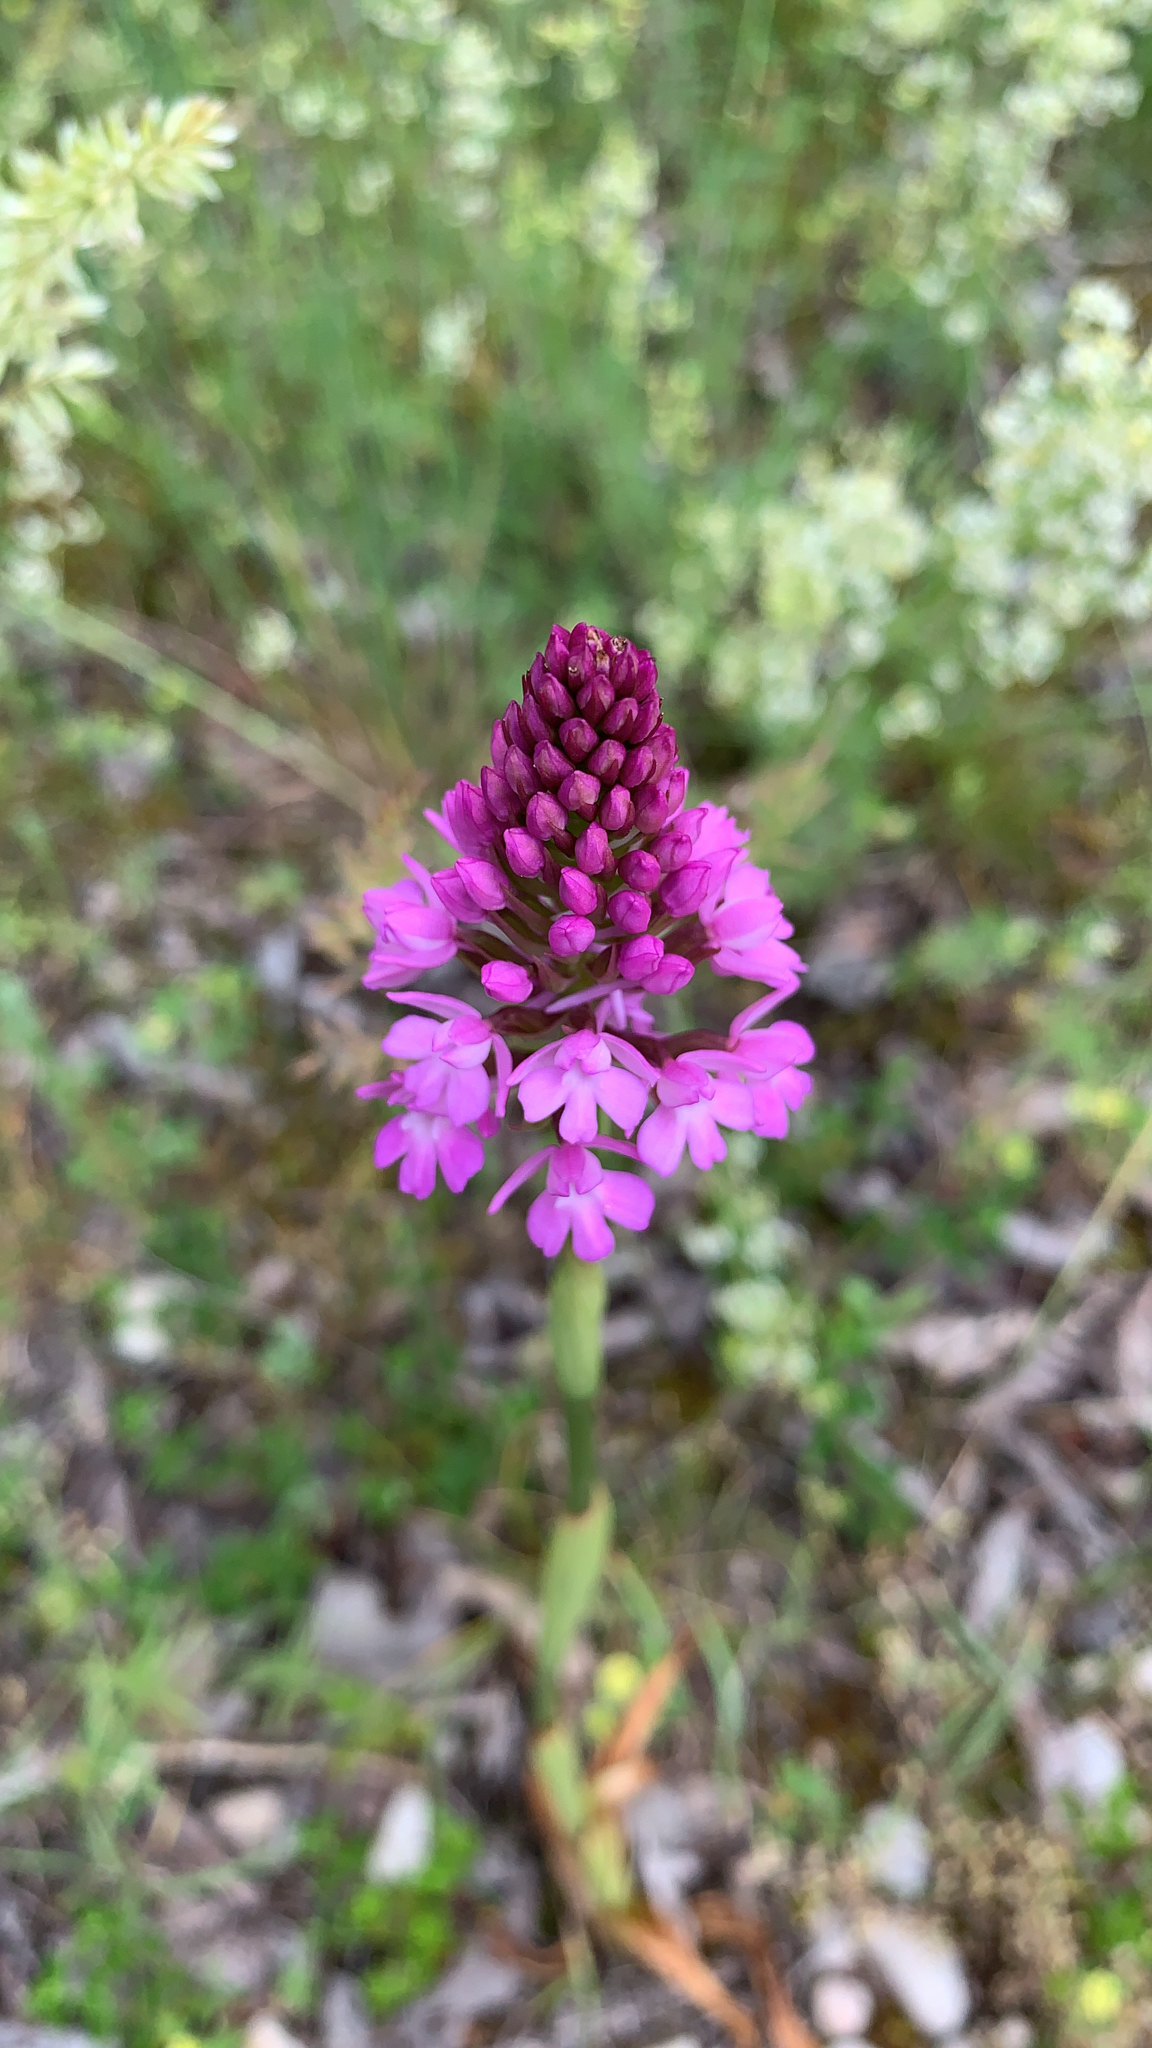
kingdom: Plantae
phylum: Tracheophyta
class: Liliopsida
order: Asparagales
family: Orchidaceae
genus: Anacamptis
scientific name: Anacamptis pyramidalis
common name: Pyramidal orchid
